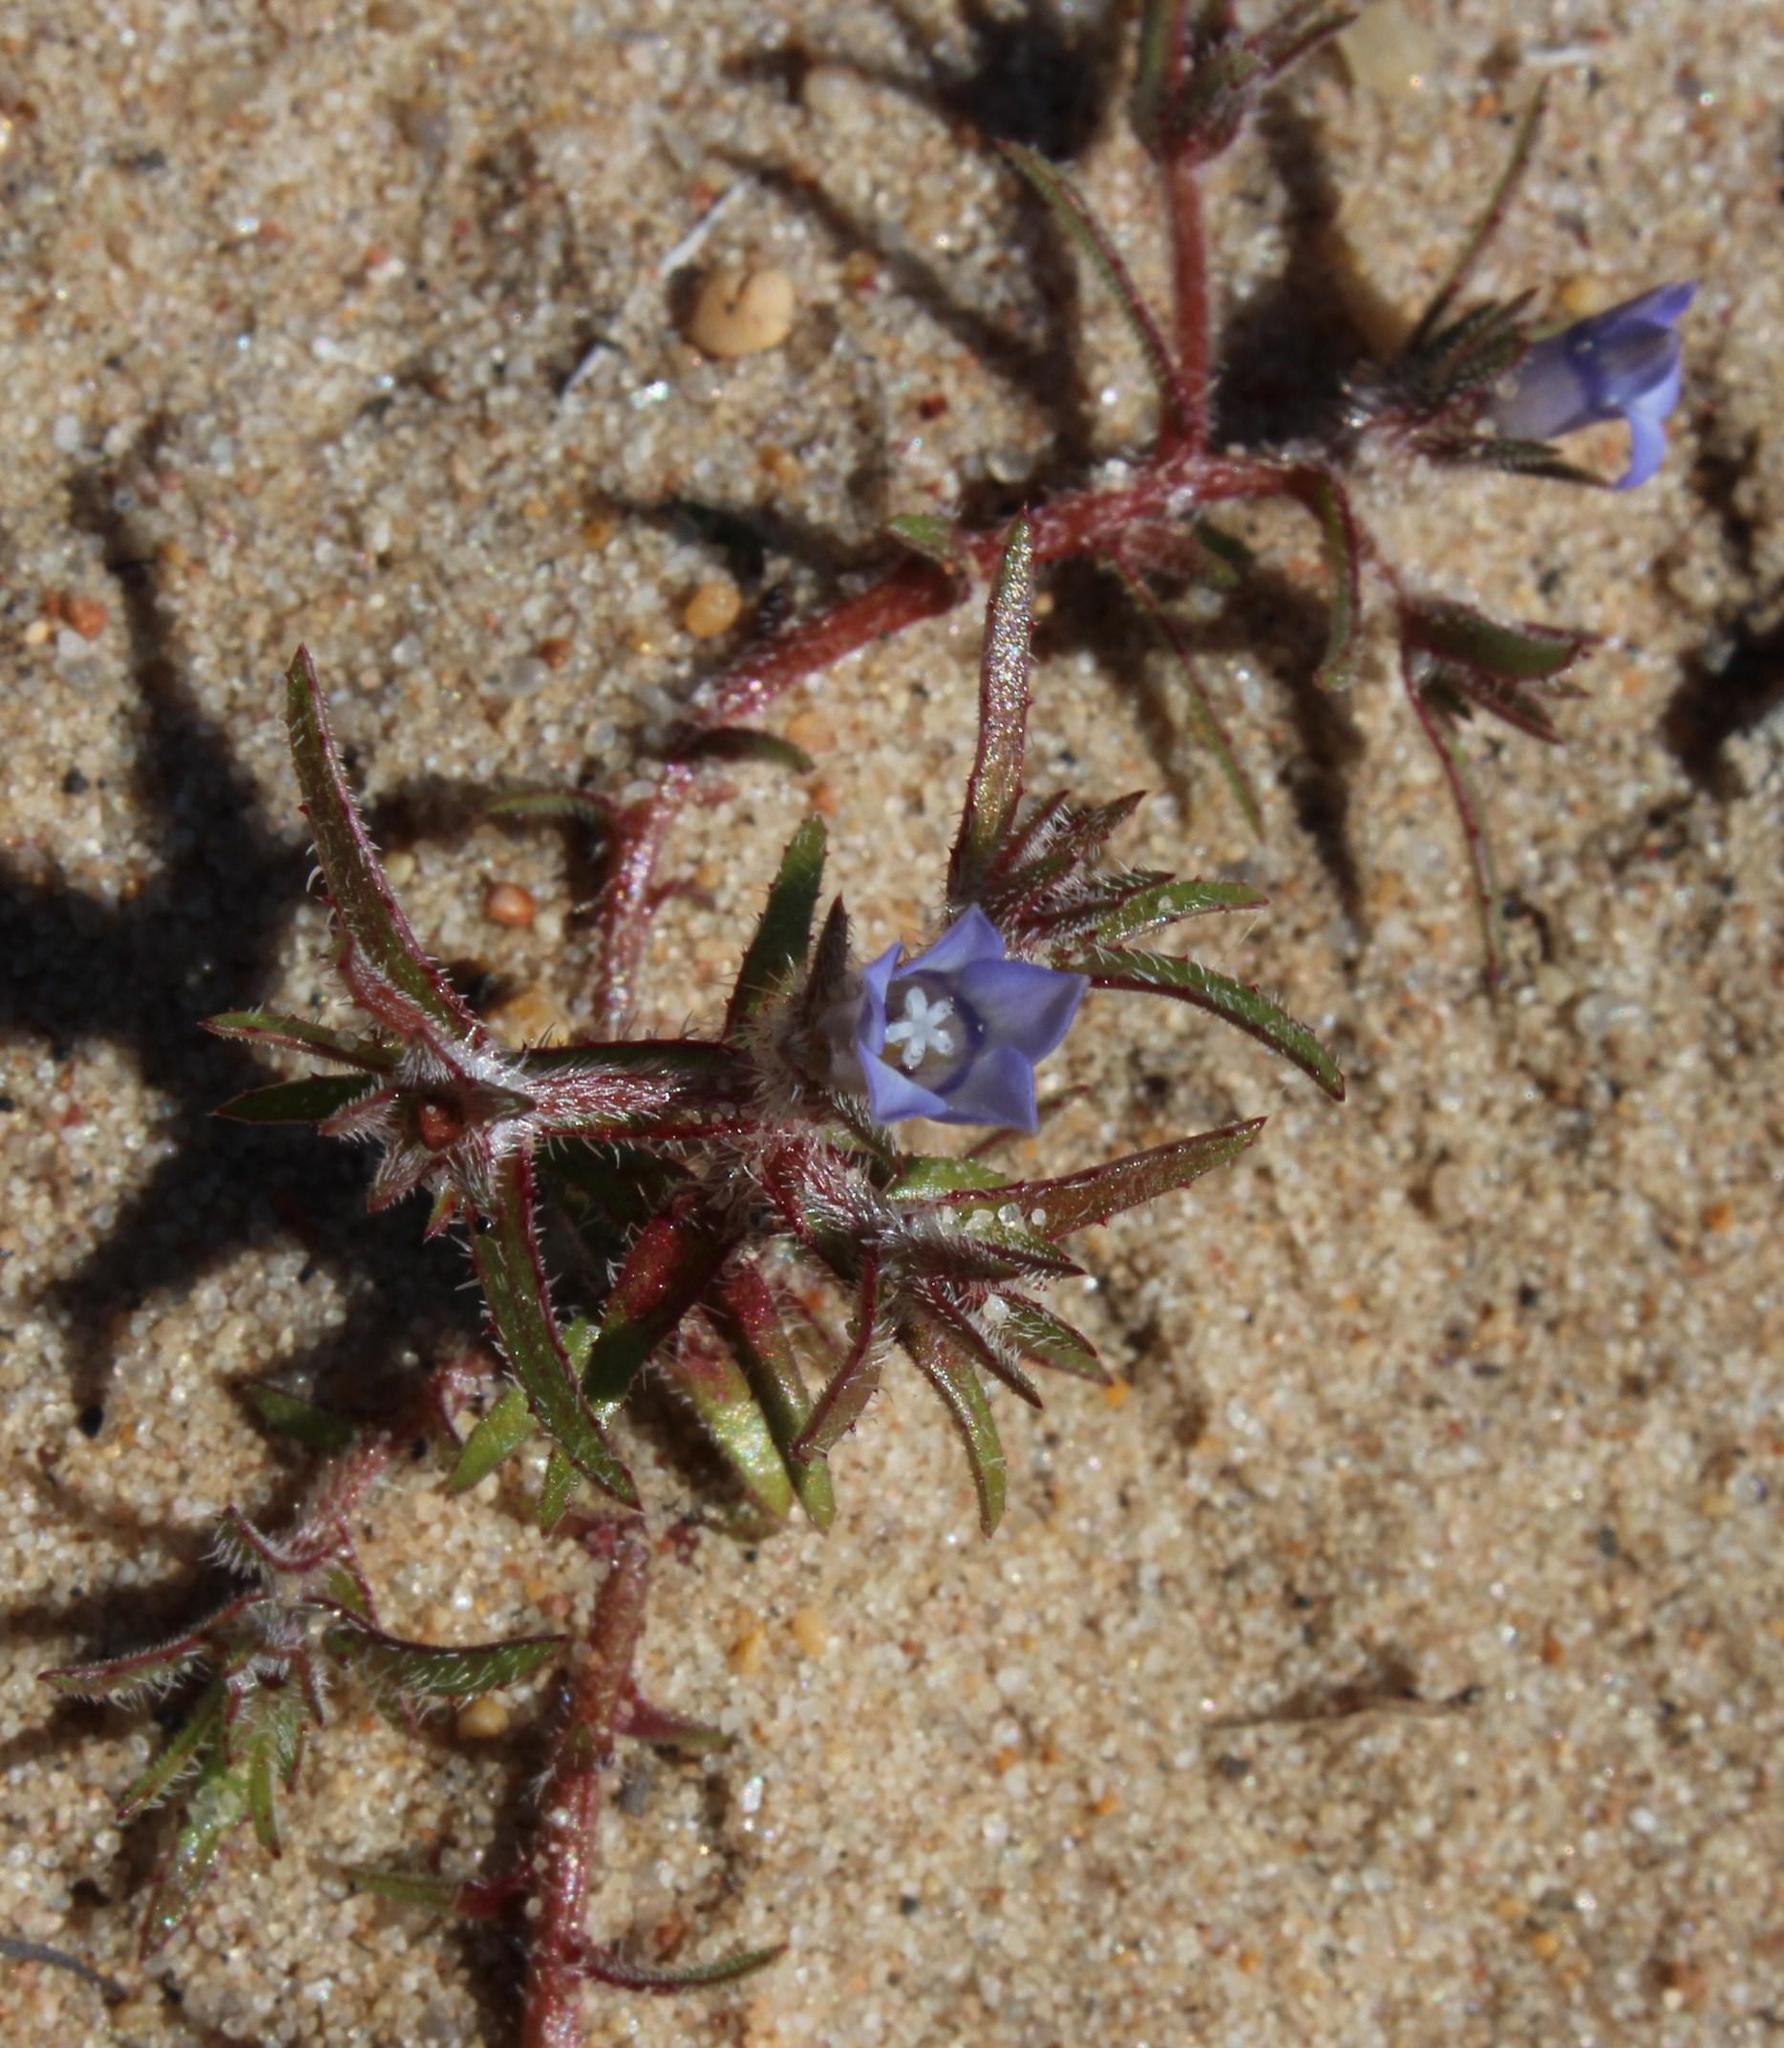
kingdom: Plantae
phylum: Tracheophyta
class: Magnoliopsida
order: Asterales
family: Campanulaceae
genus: Microcodon
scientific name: Microcodon glomeratus
